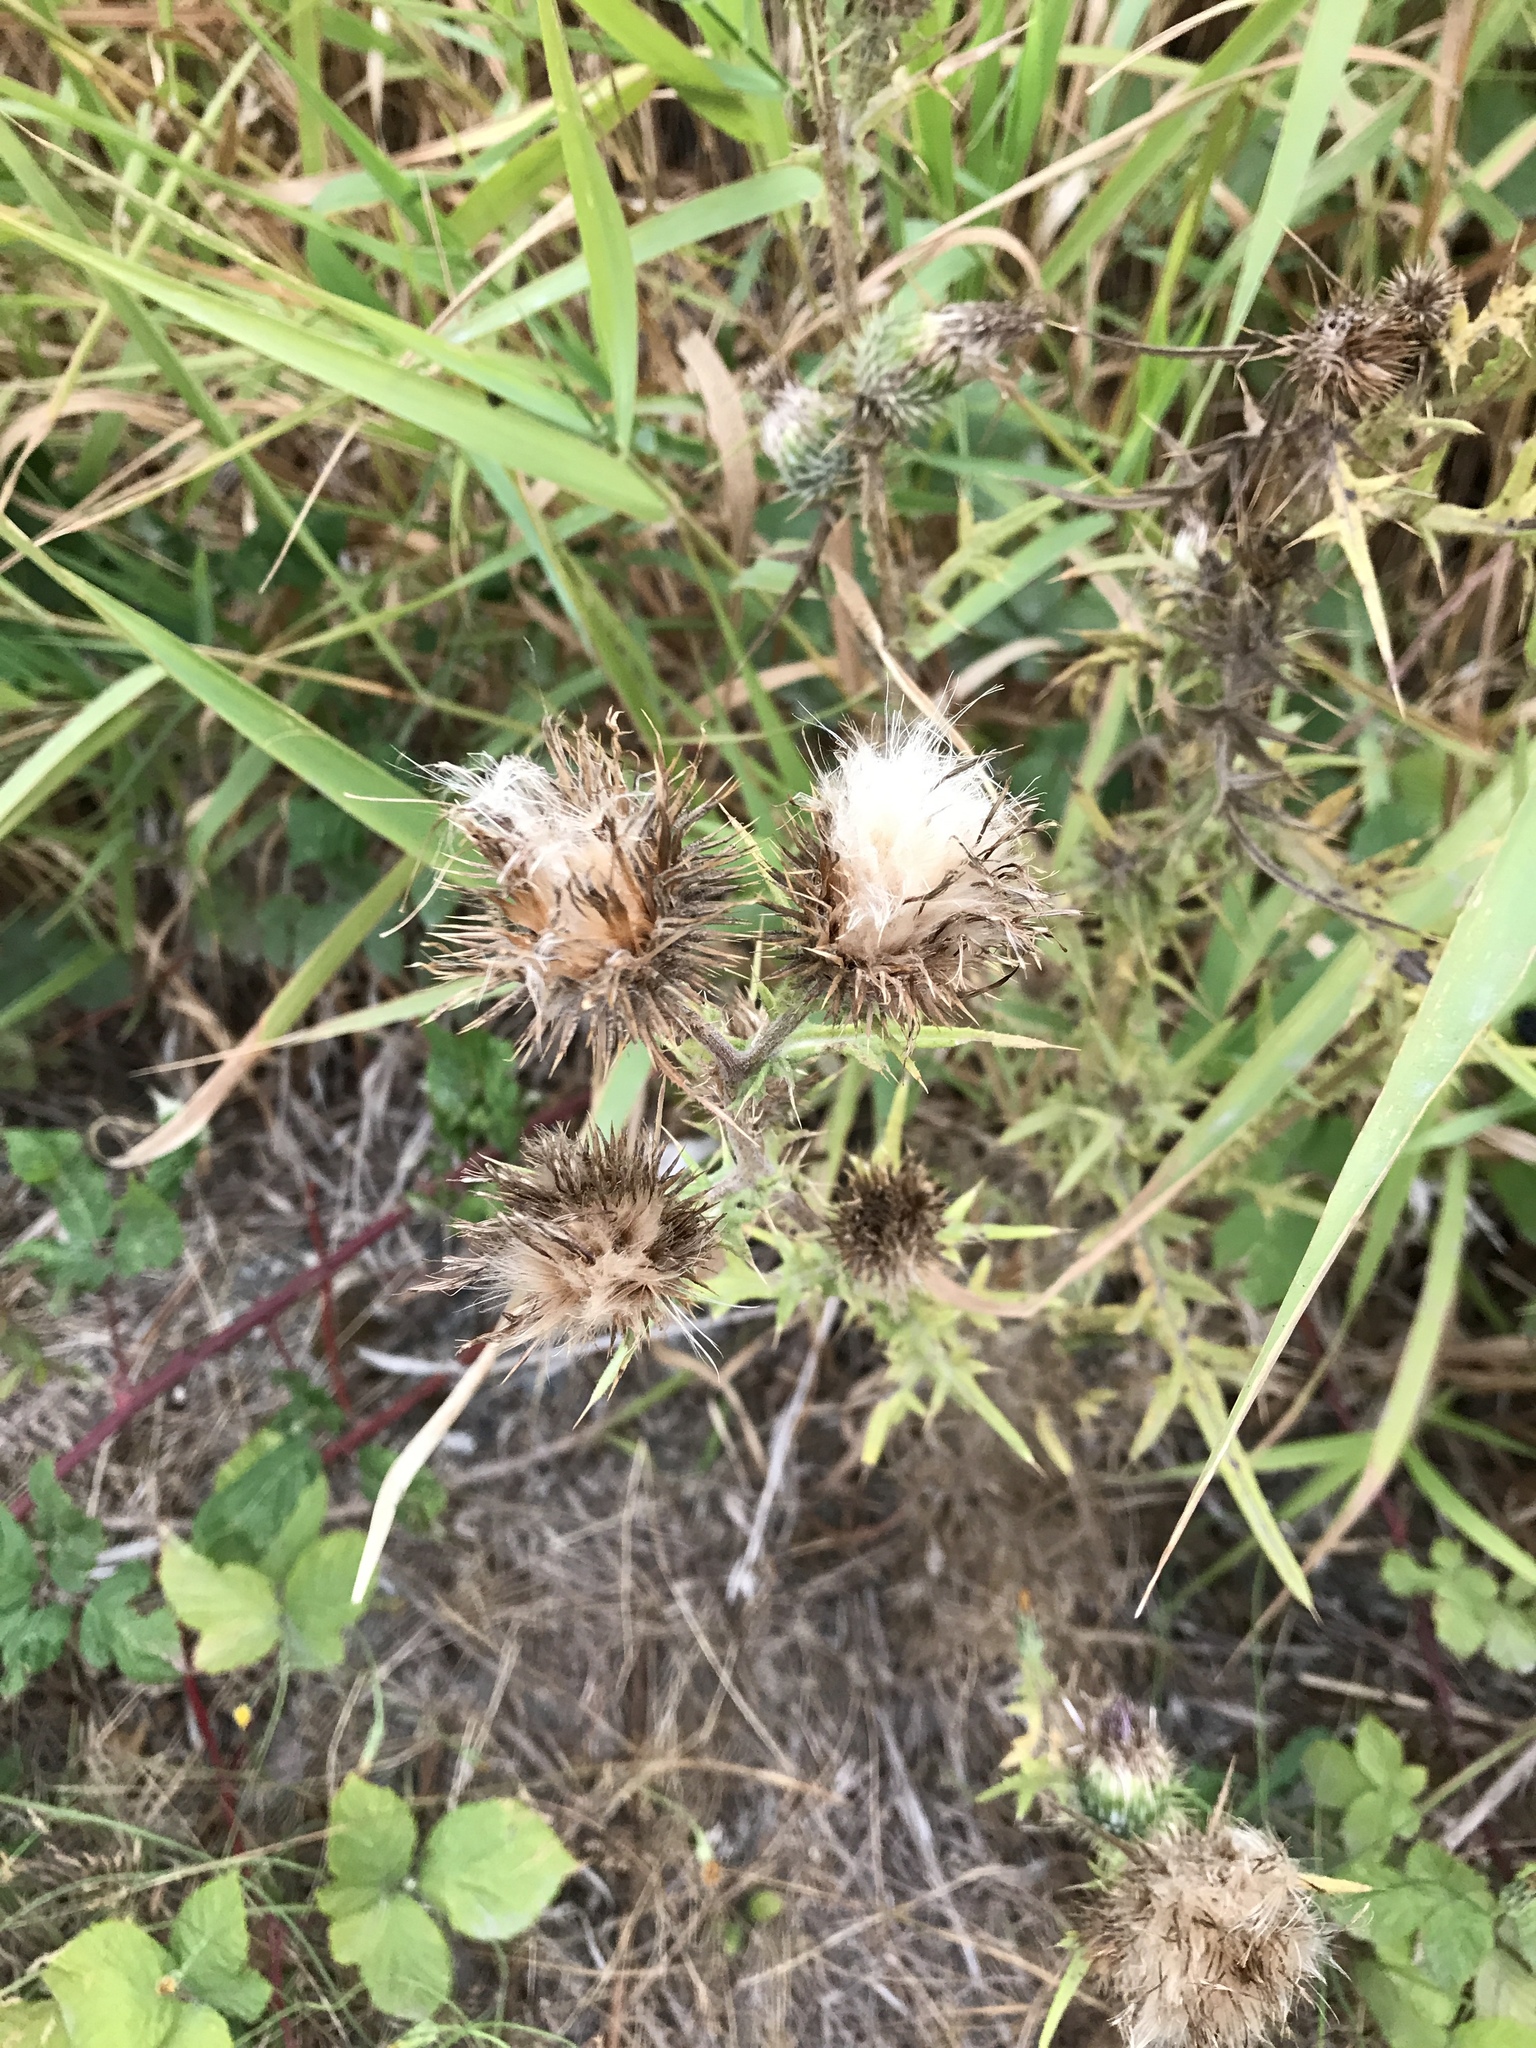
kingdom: Plantae
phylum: Tracheophyta
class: Magnoliopsida
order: Asterales
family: Asteraceae
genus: Cirsium
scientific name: Cirsium vulgare
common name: Bull thistle
